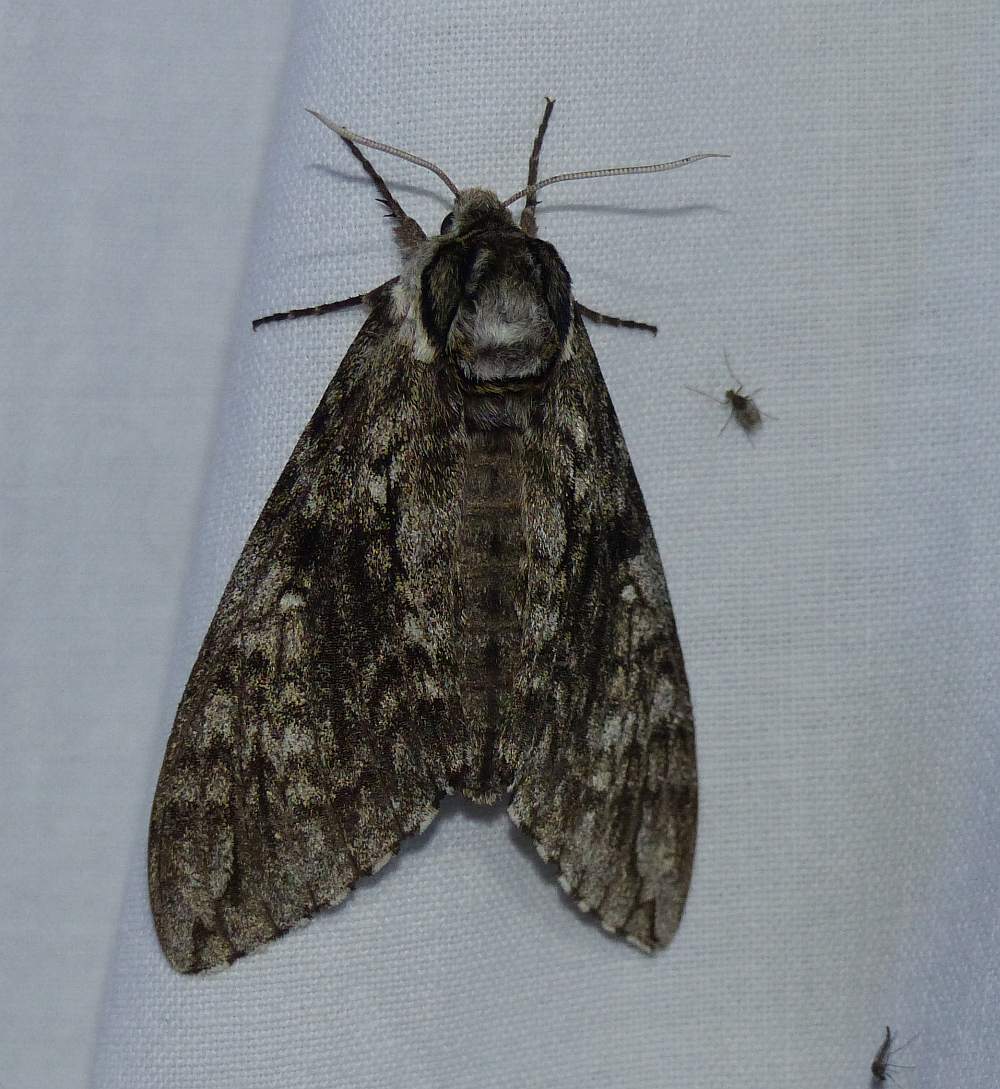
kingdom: Animalia
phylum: Arthropoda
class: Insecta
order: Lepidoptera
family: Sphingidae
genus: Ceratomia
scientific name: Ceratomia undulosa
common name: Waved sphinx
